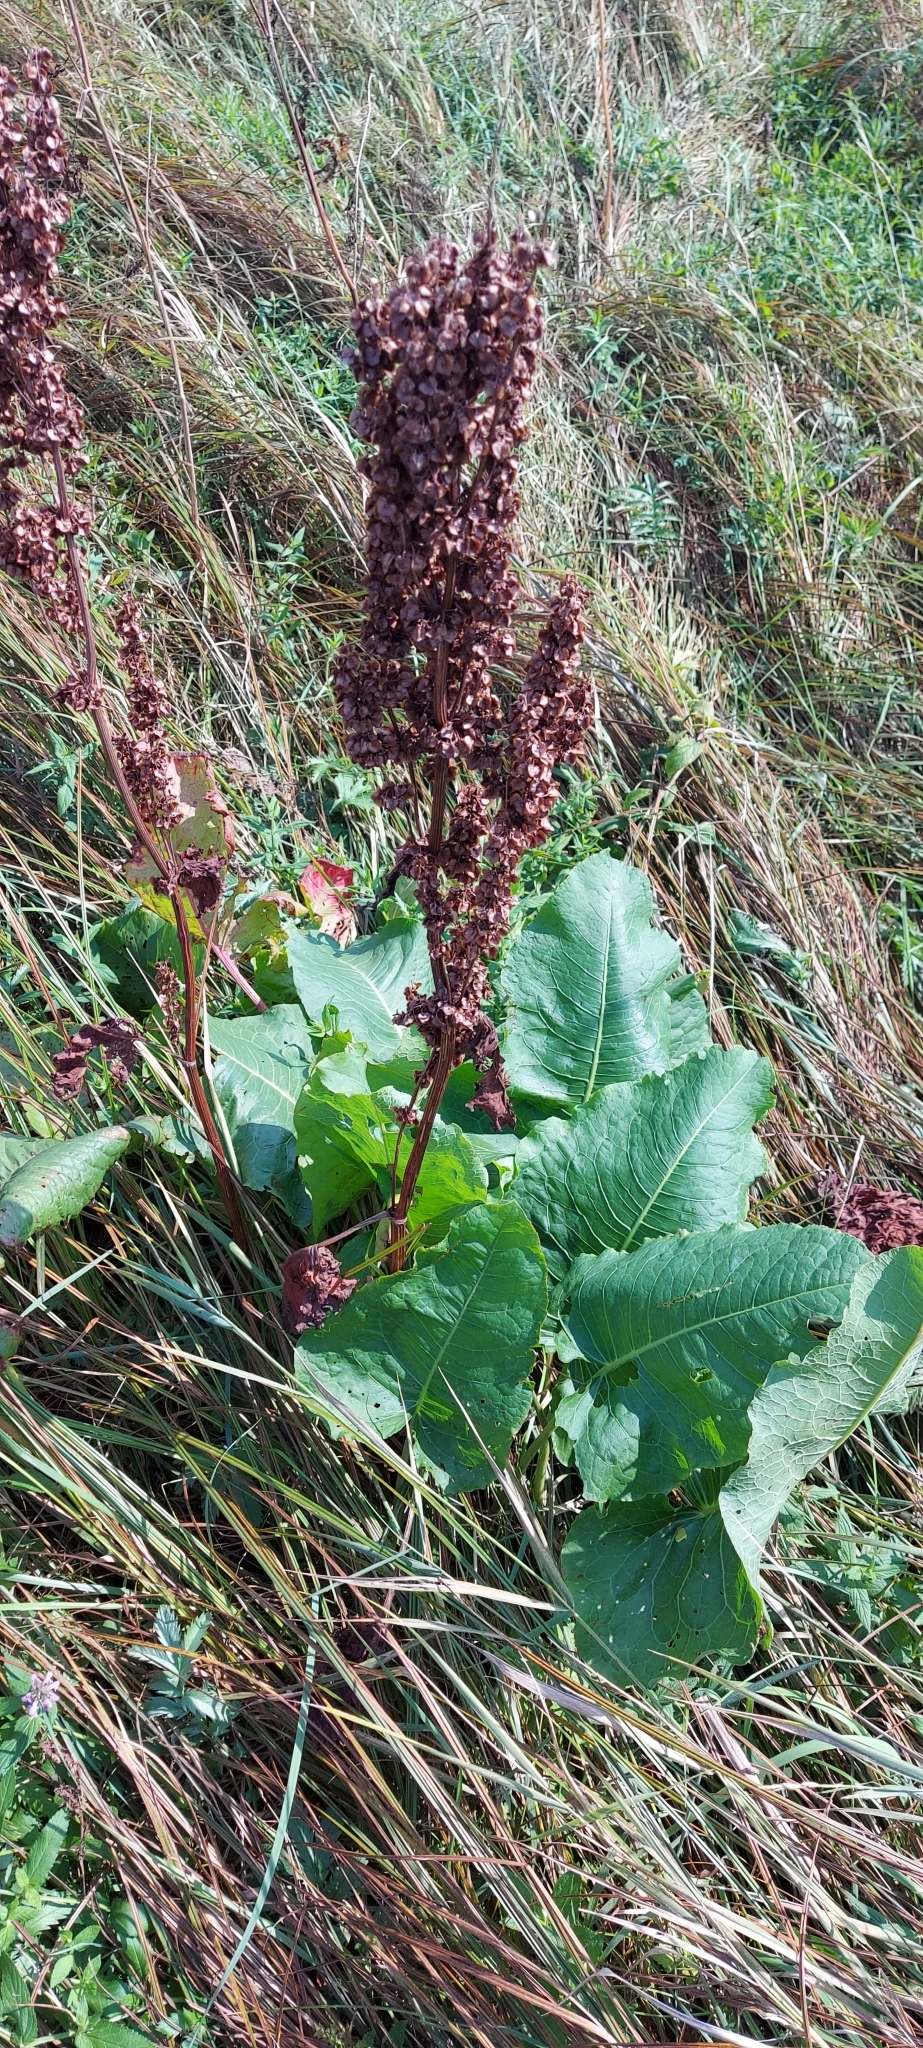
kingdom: Plantae
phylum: Tracheophyta
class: Magnoliopsida
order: Caryophyllales
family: Polygonaceae
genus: Rumex
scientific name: Rumex confertus
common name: Russian dock
